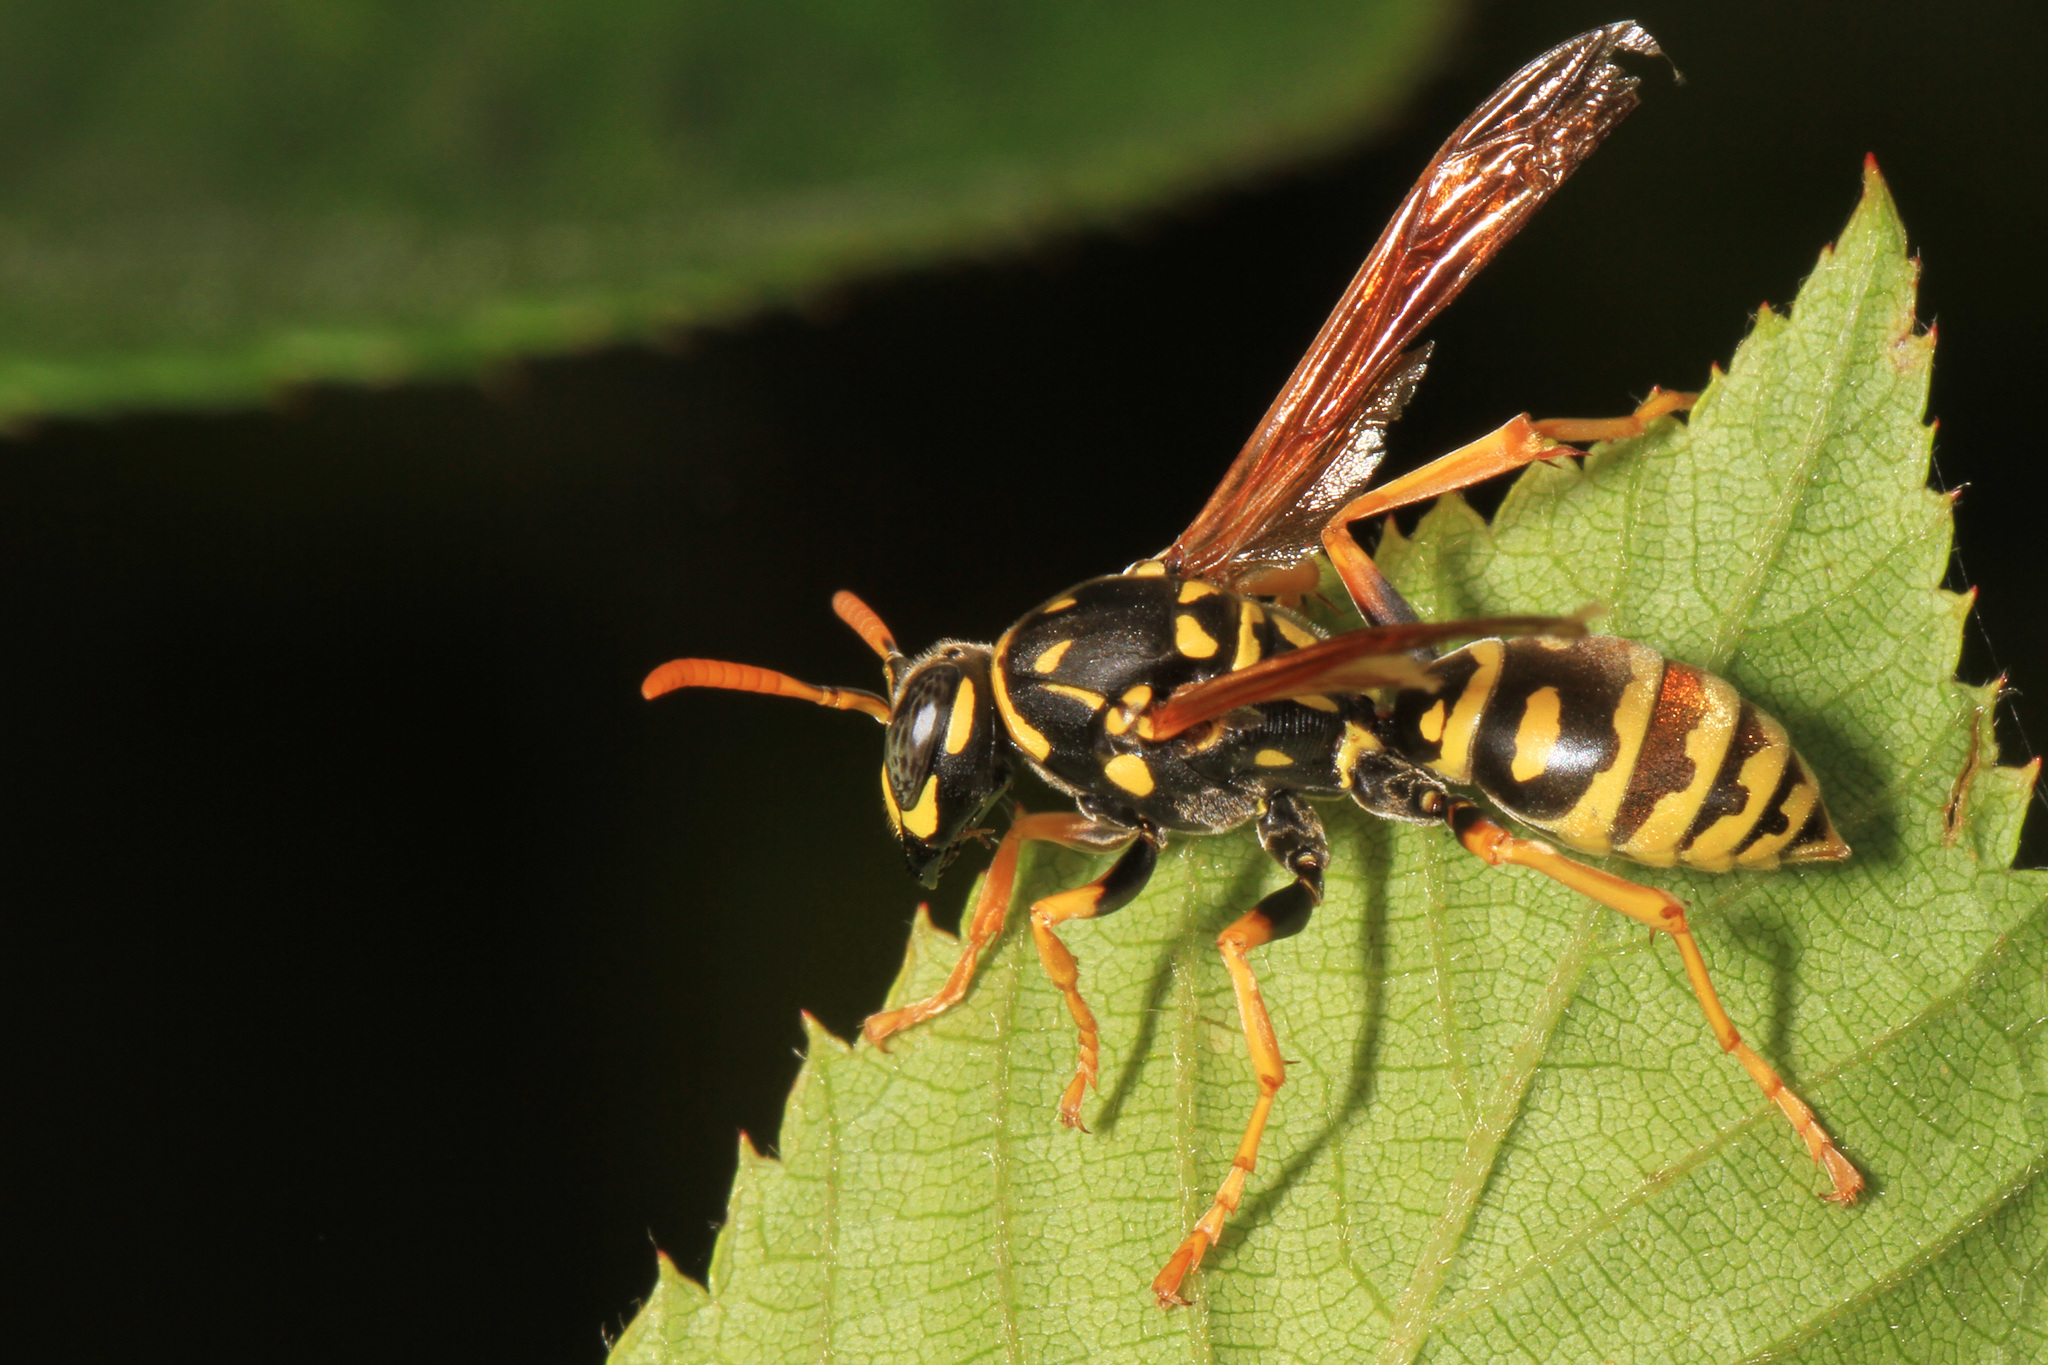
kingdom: Animalia
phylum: Arthropoda
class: Insecta
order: Hymenoptera
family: Eumenidae
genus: Polistes
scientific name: Polistes dominula
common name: Paper wasp
